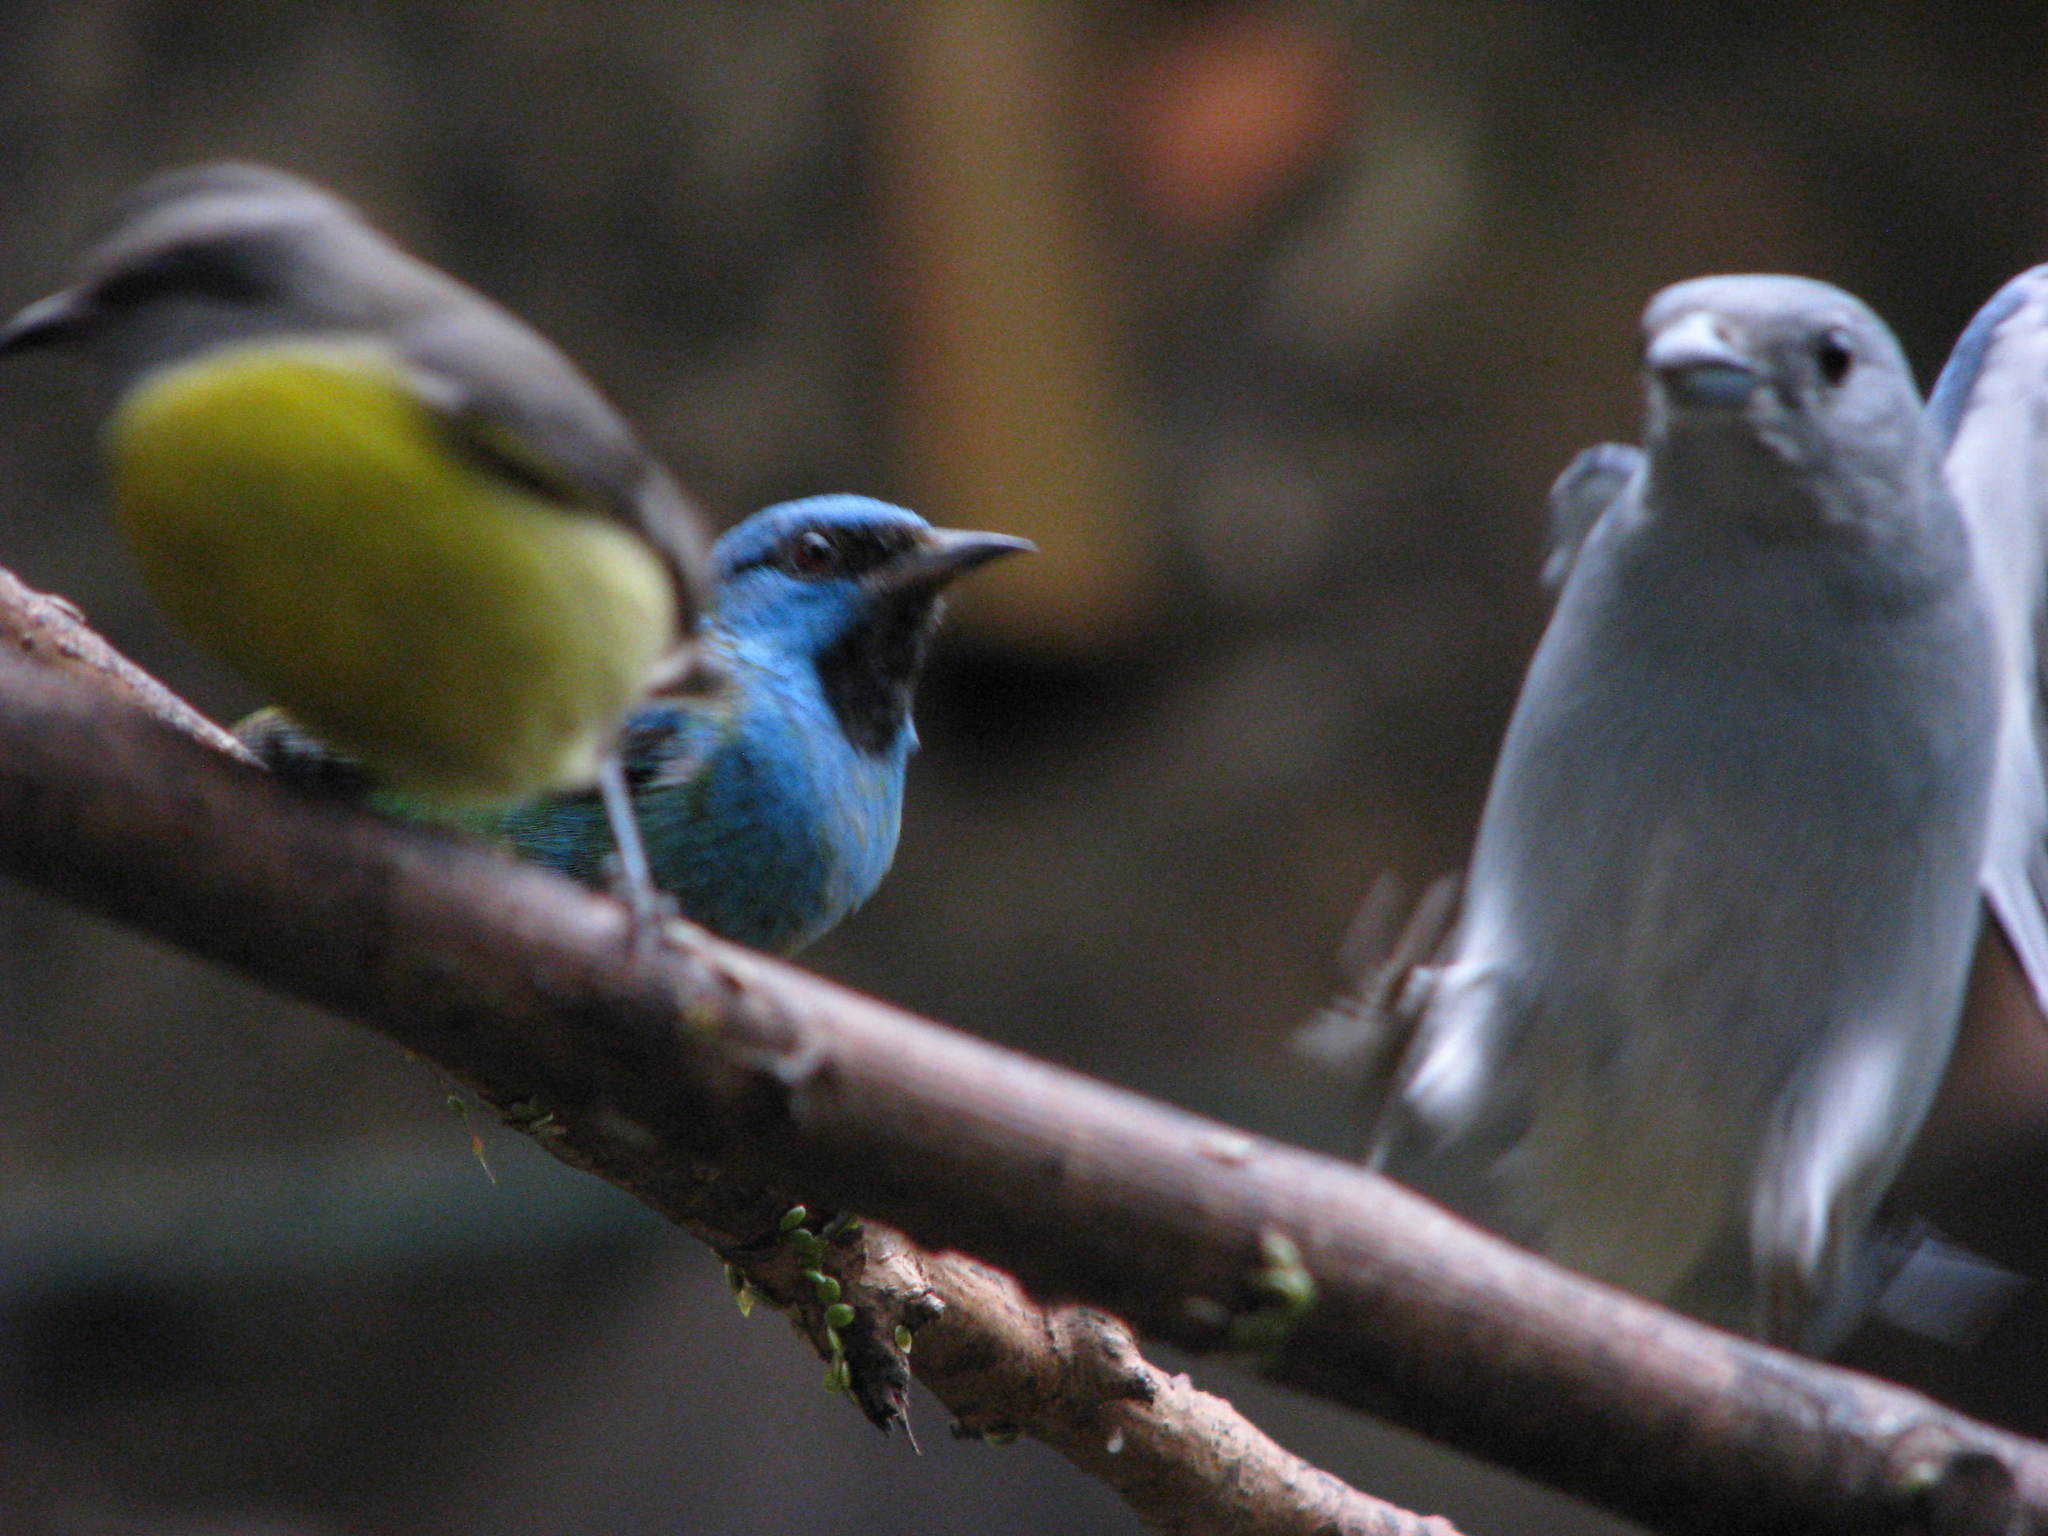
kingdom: Animalia
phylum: Chordata
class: Aves
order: Passeriformes
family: Thraupidae
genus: Dacnis
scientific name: Dacnis cayana
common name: Blue dacnis
